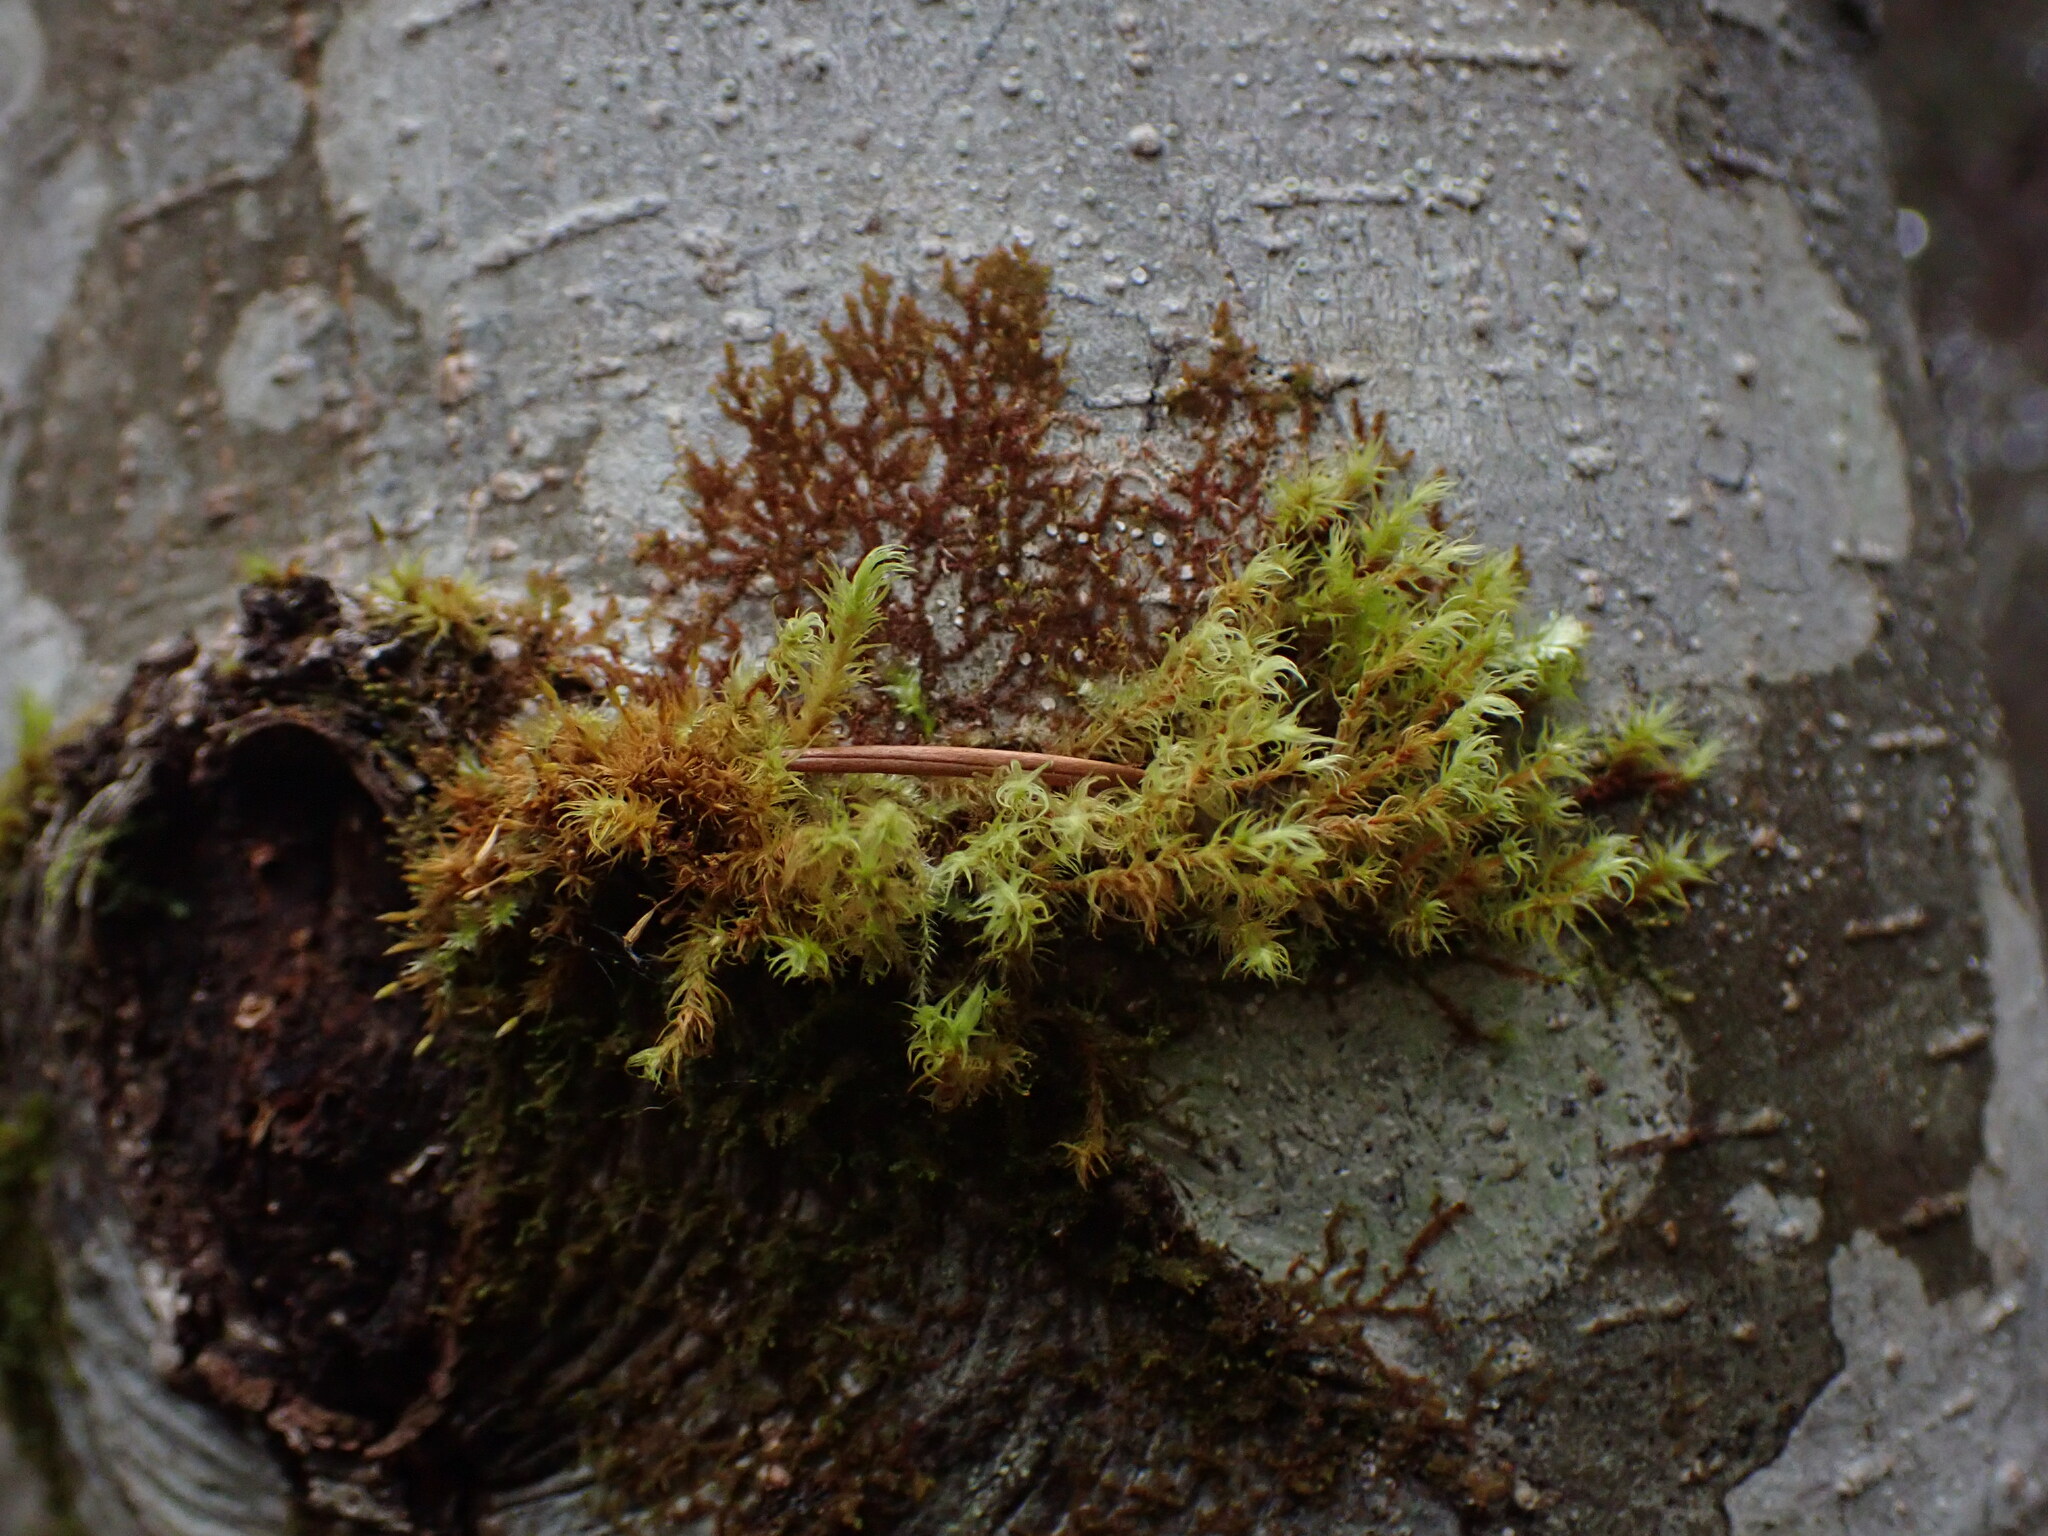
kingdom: Plantae
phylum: Marchantiophyta
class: Jungermanniopsida
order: Porellales
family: Frullaniaceae
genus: Frullania
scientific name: Frullania bolanderi
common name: Bolander s scalewort
